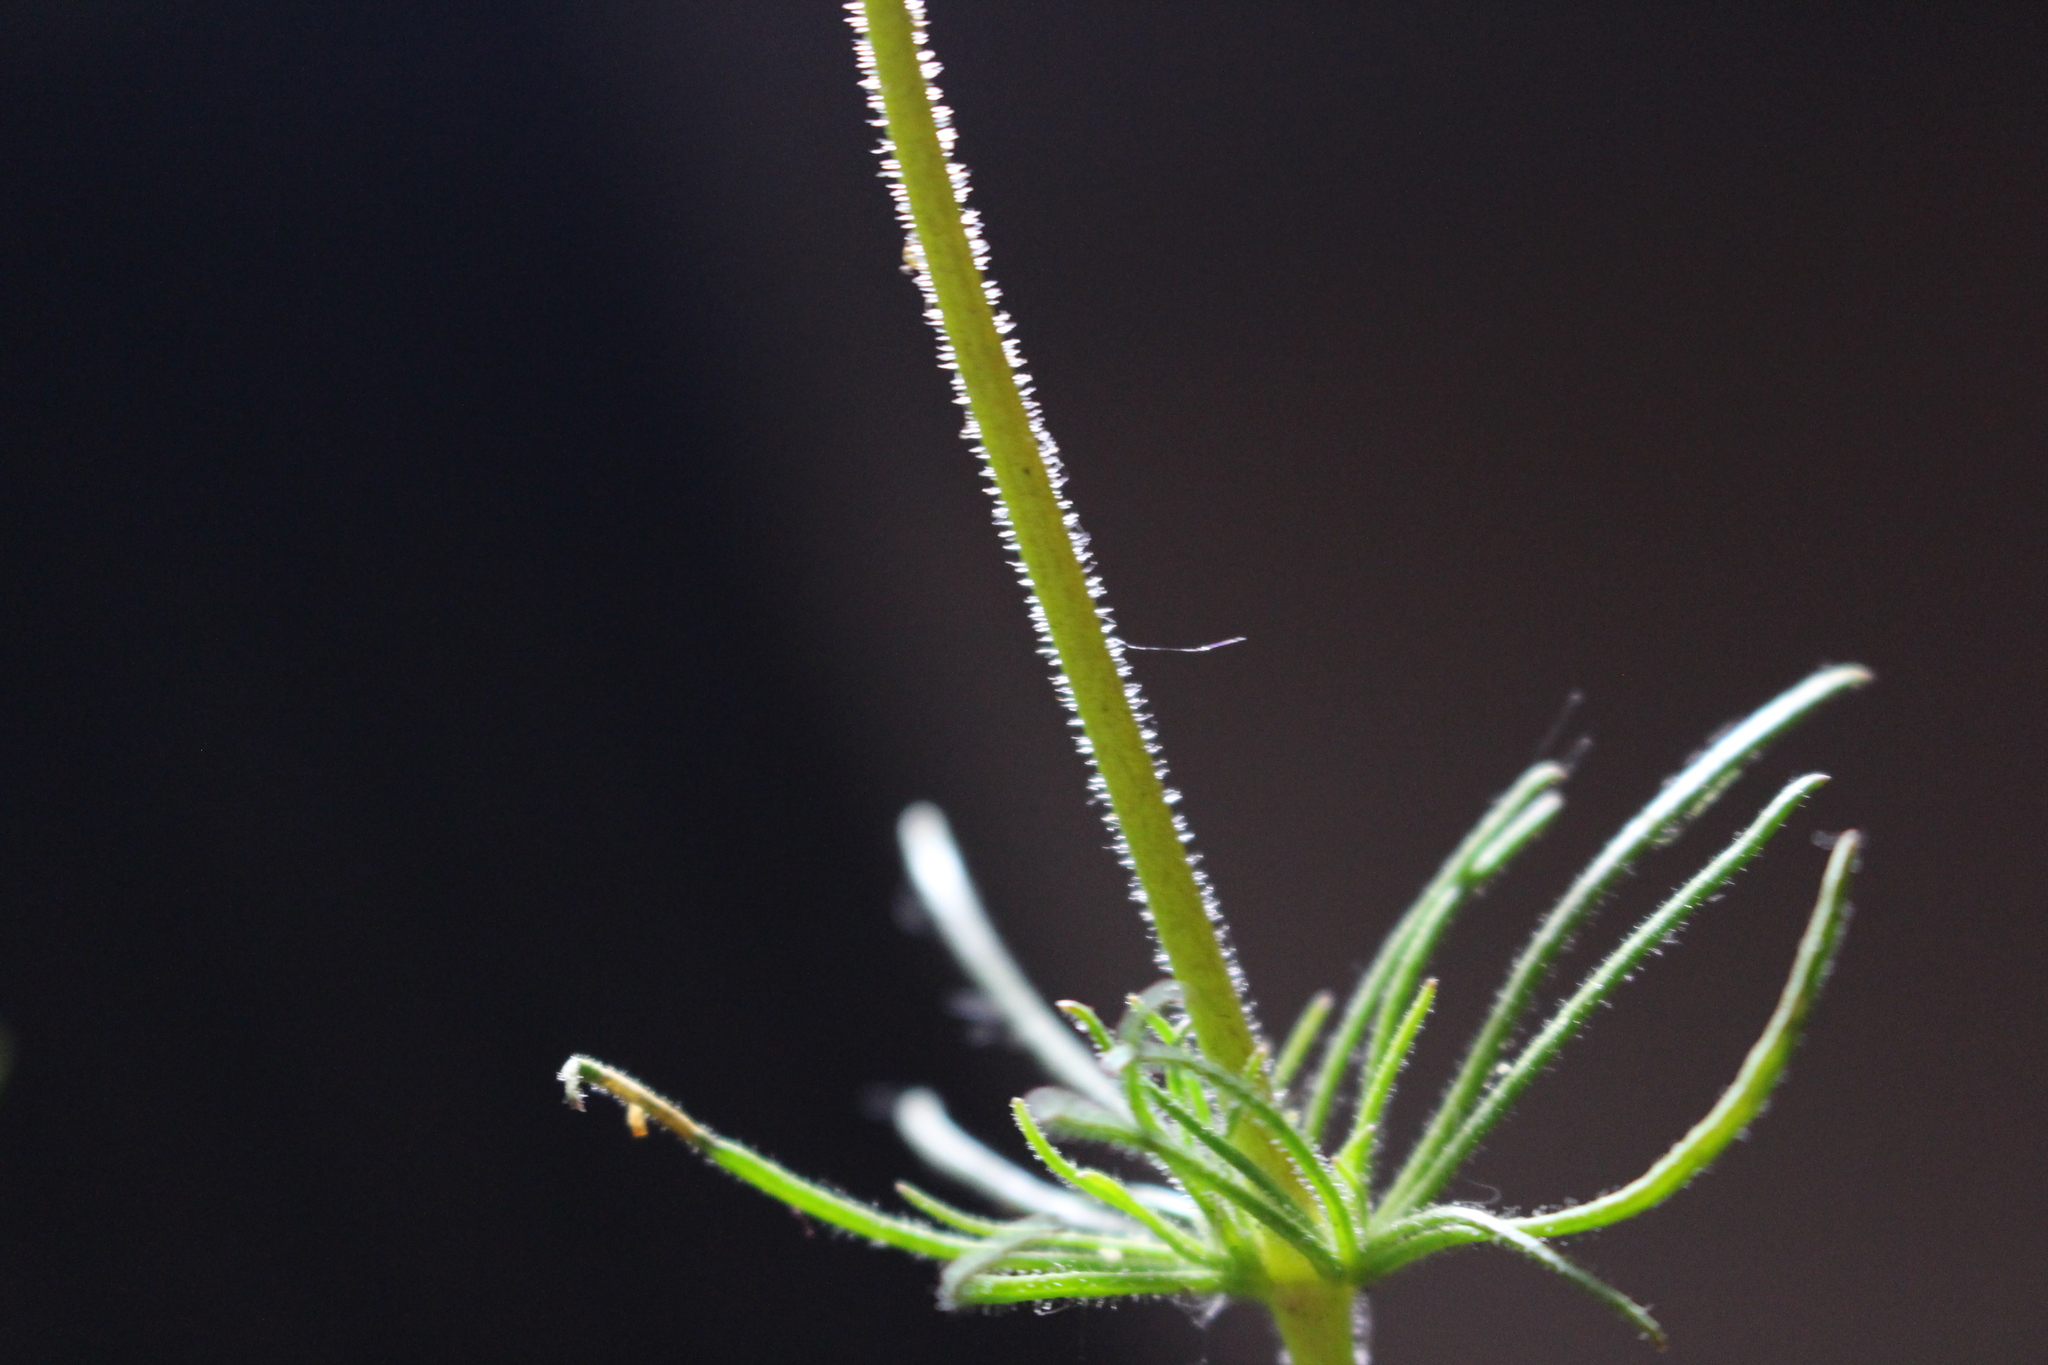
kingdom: Plantae
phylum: Tracheophyta
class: Magnoliopsida
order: Caryophyllales
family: Caryophyllaceae
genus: Spergula
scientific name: Spergula arvensis
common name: Corn spurrey
